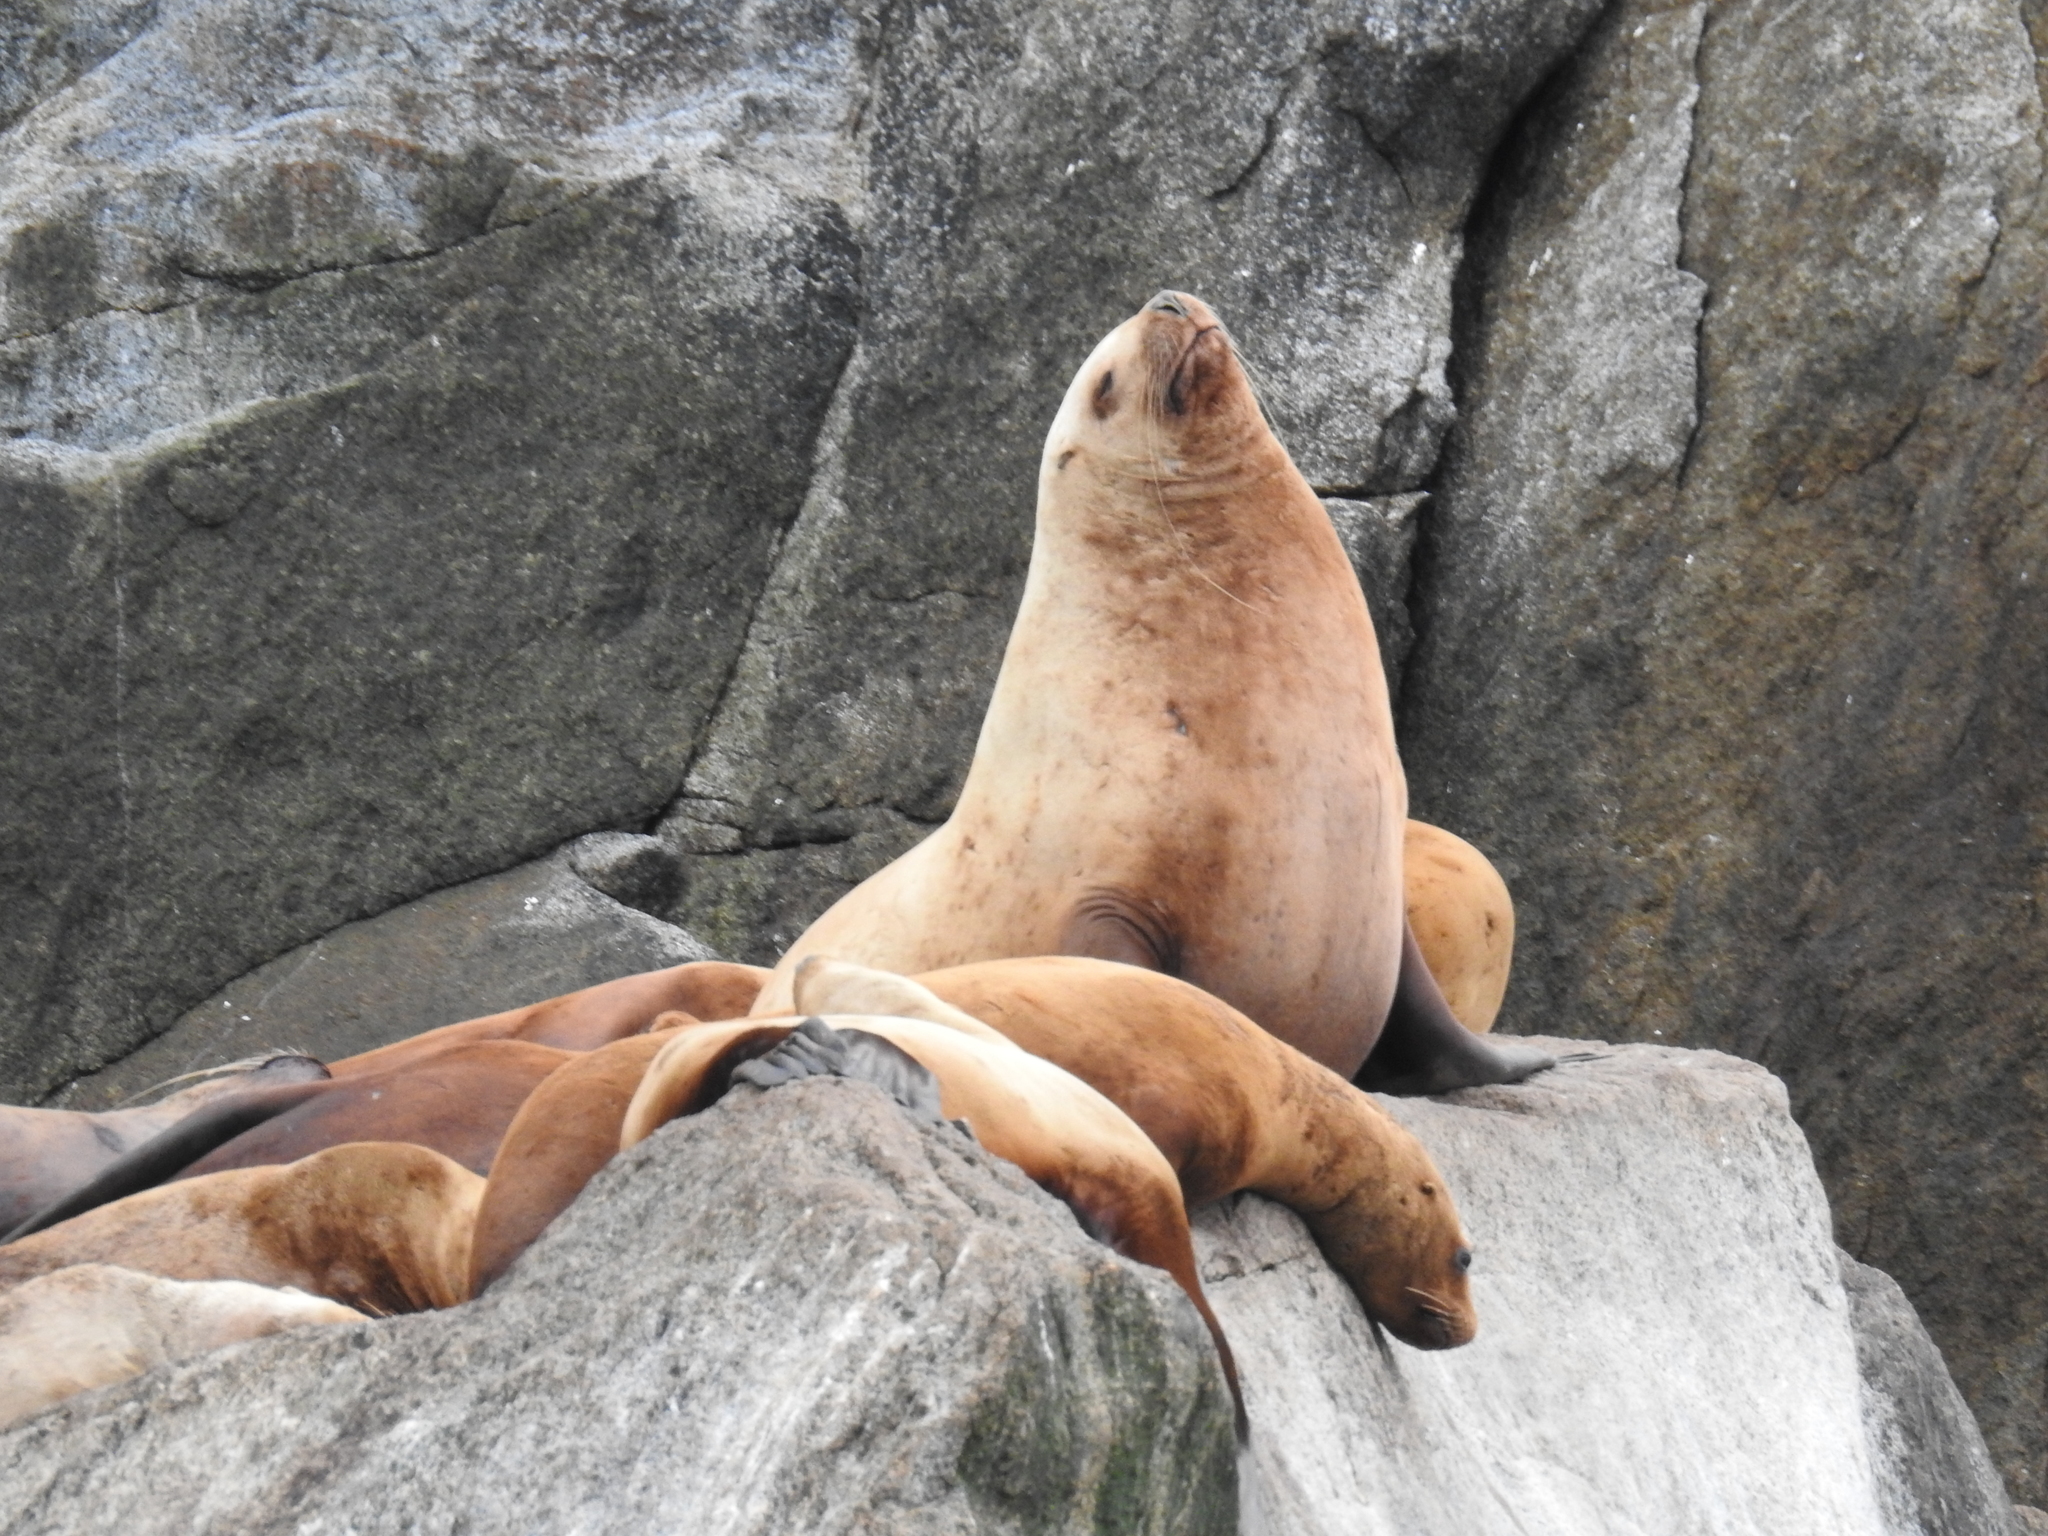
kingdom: Animalia
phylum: Chordata
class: Mammalia
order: Carnivora
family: Otariidae
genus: Eumetopias
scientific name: Eumetopias jubatus
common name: Steller sea lion
